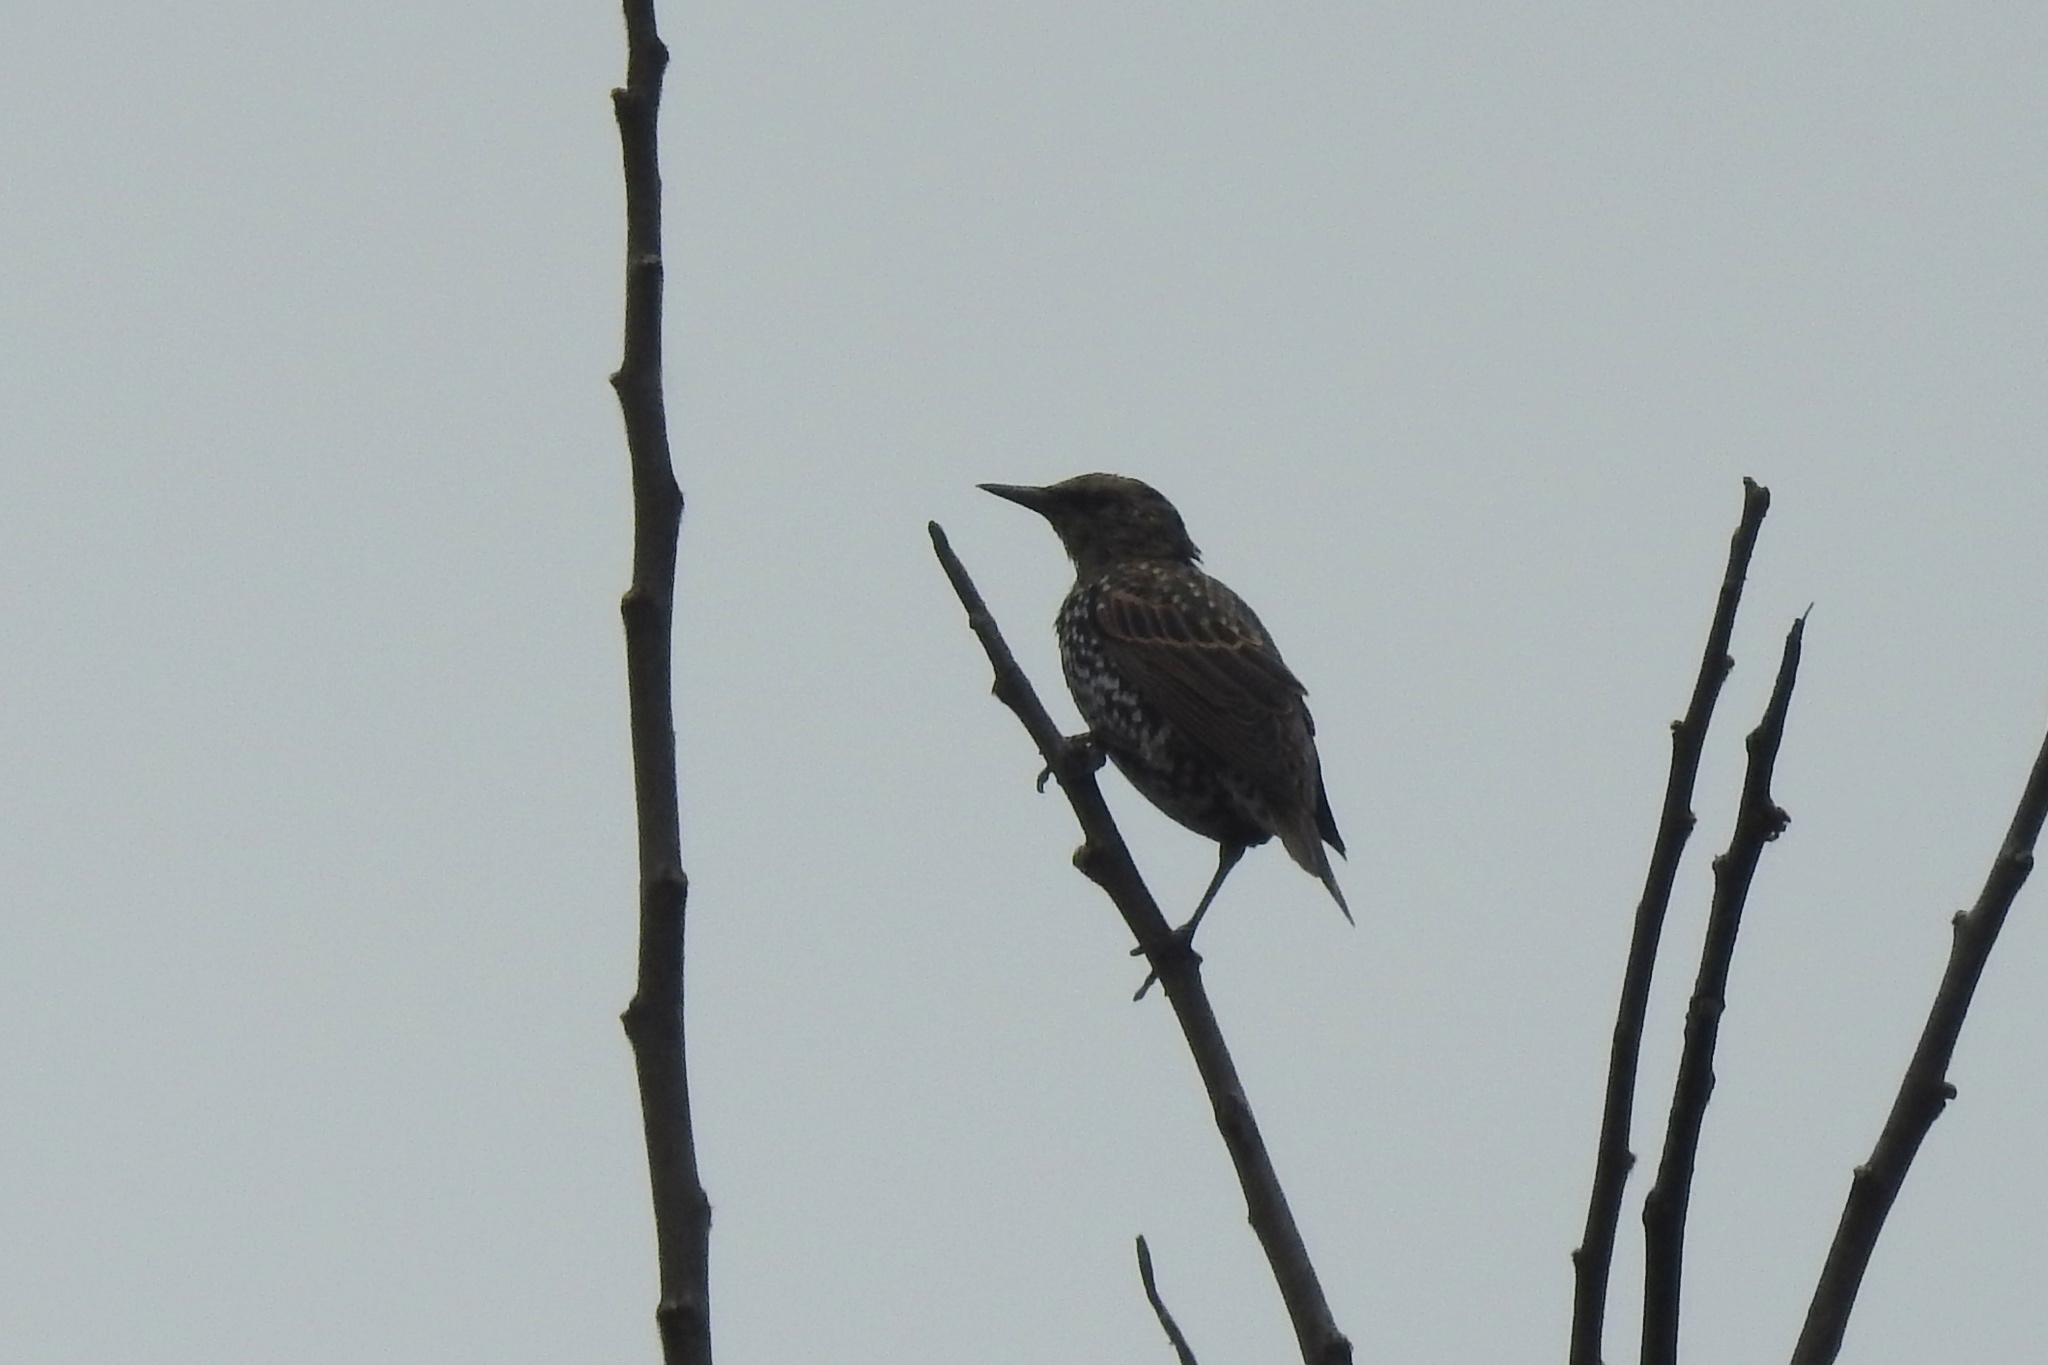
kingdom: Animalia
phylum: Chordata
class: Aves
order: Passeriformes
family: Sturnidae
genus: Sturnus
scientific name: Sturnus vulgaris
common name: Common starling
